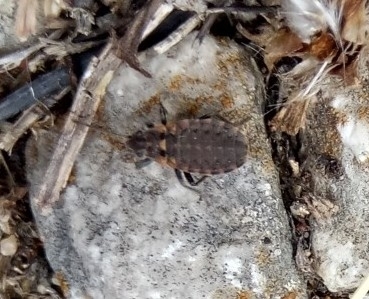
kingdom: Animalia
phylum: Arthropoda
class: Insecta
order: Hemiptera
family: Lygaeidae
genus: Apterola
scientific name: Apterola kunckeli
